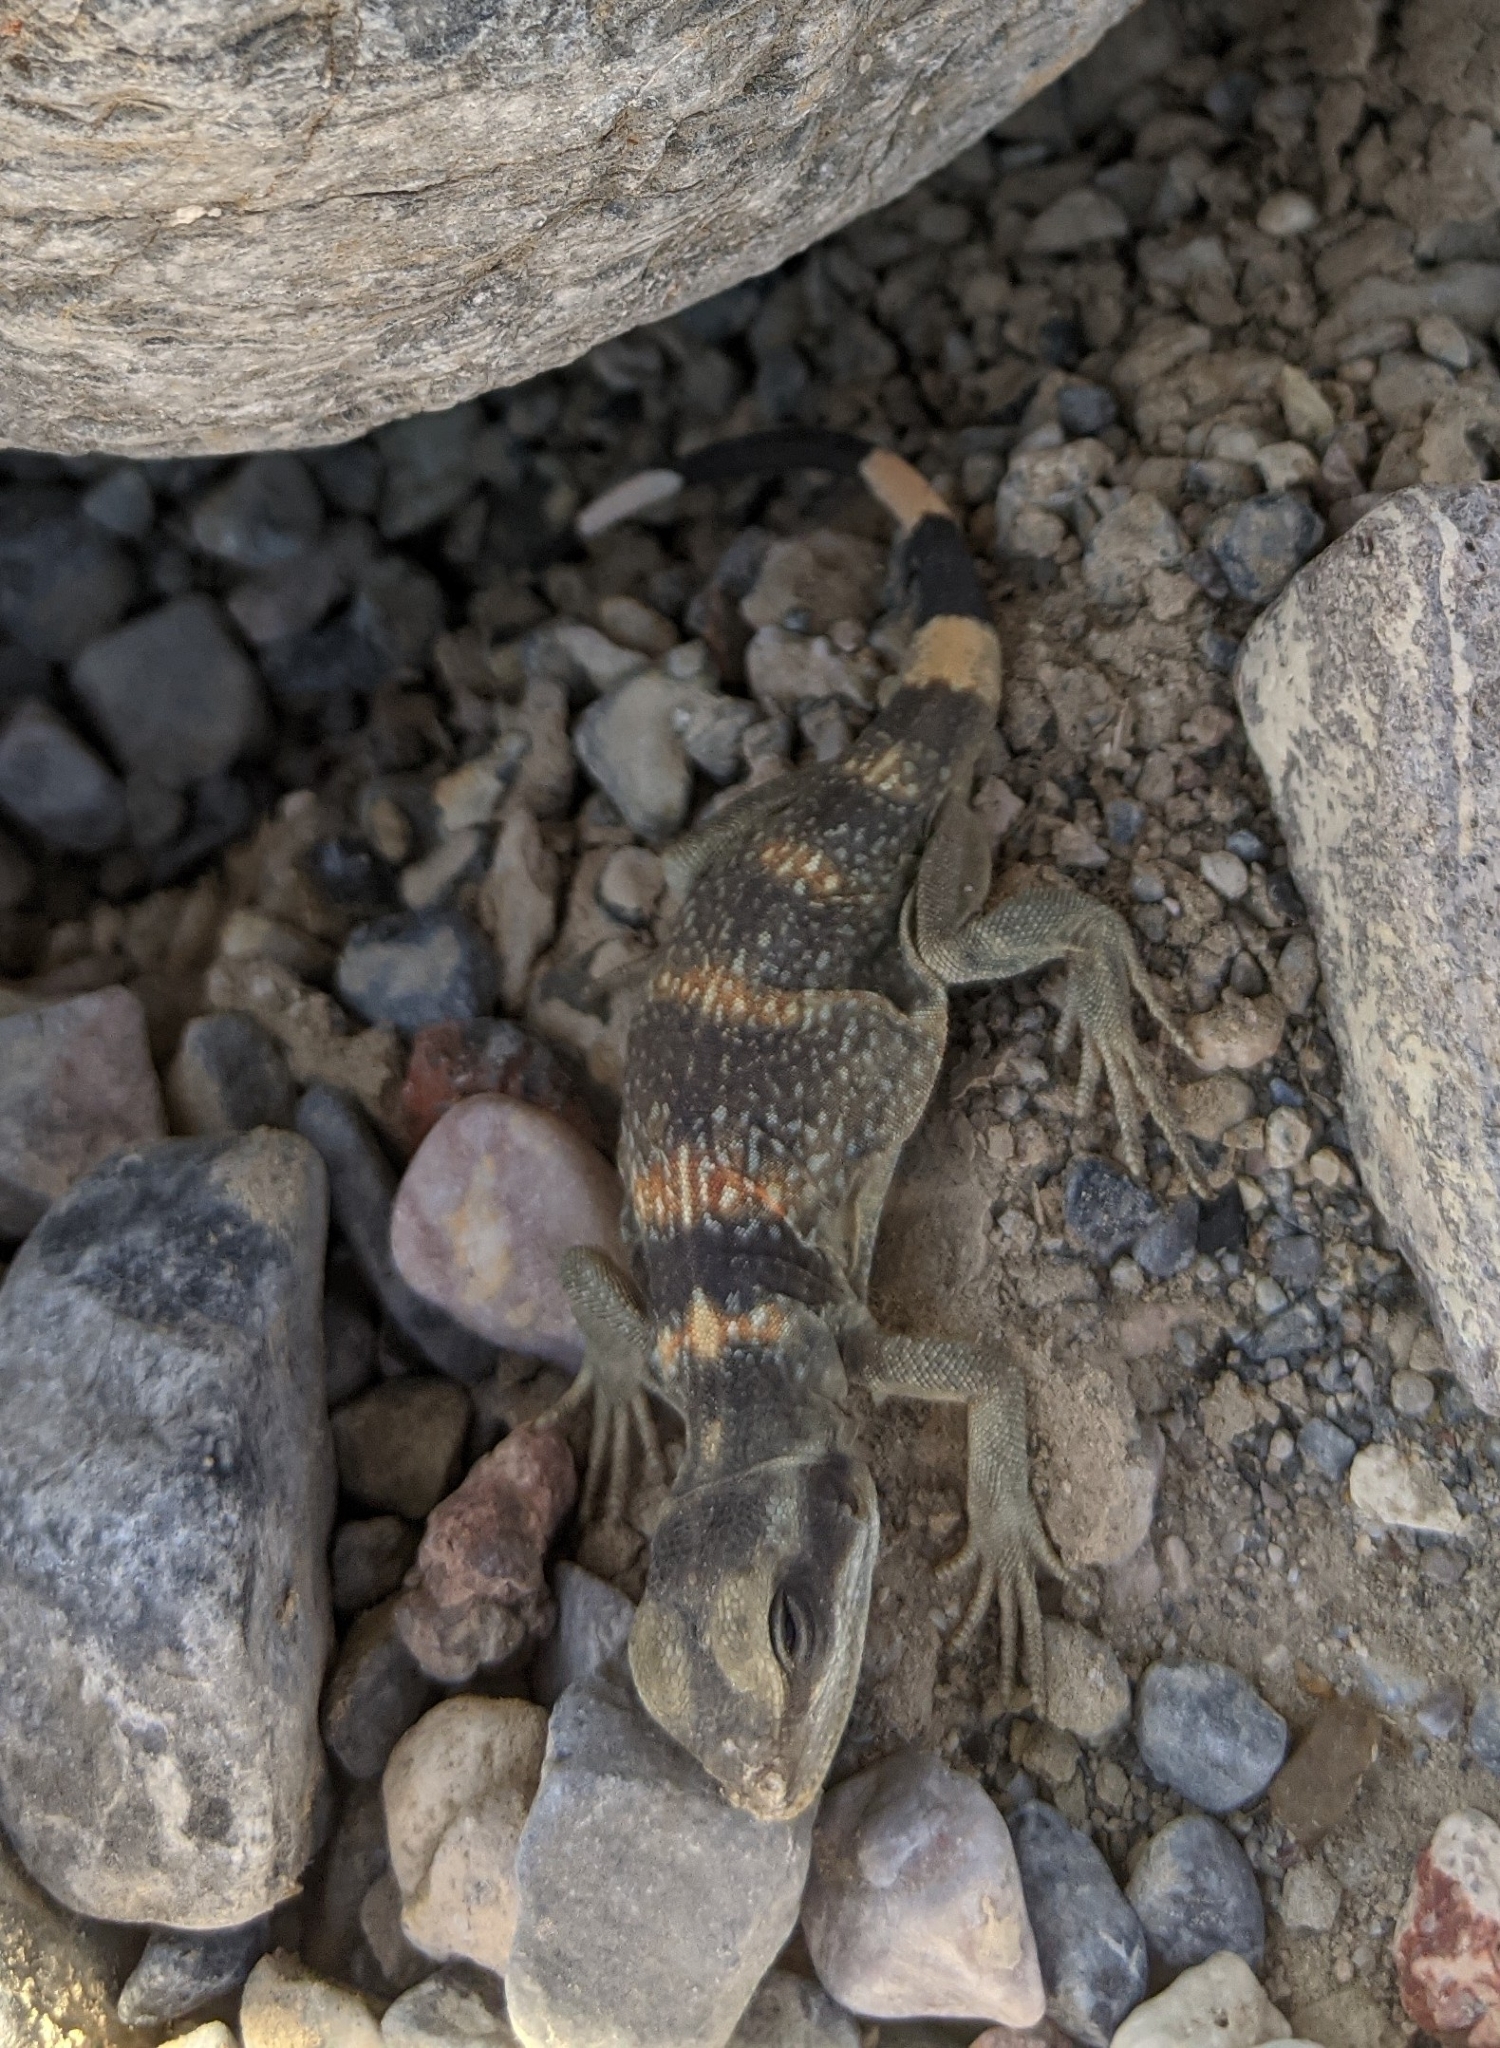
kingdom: Animalia
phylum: Chordata
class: Squamata
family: Iguanidae
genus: Sauromalus
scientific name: Sauromalus ater
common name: Northern chuckwalla
